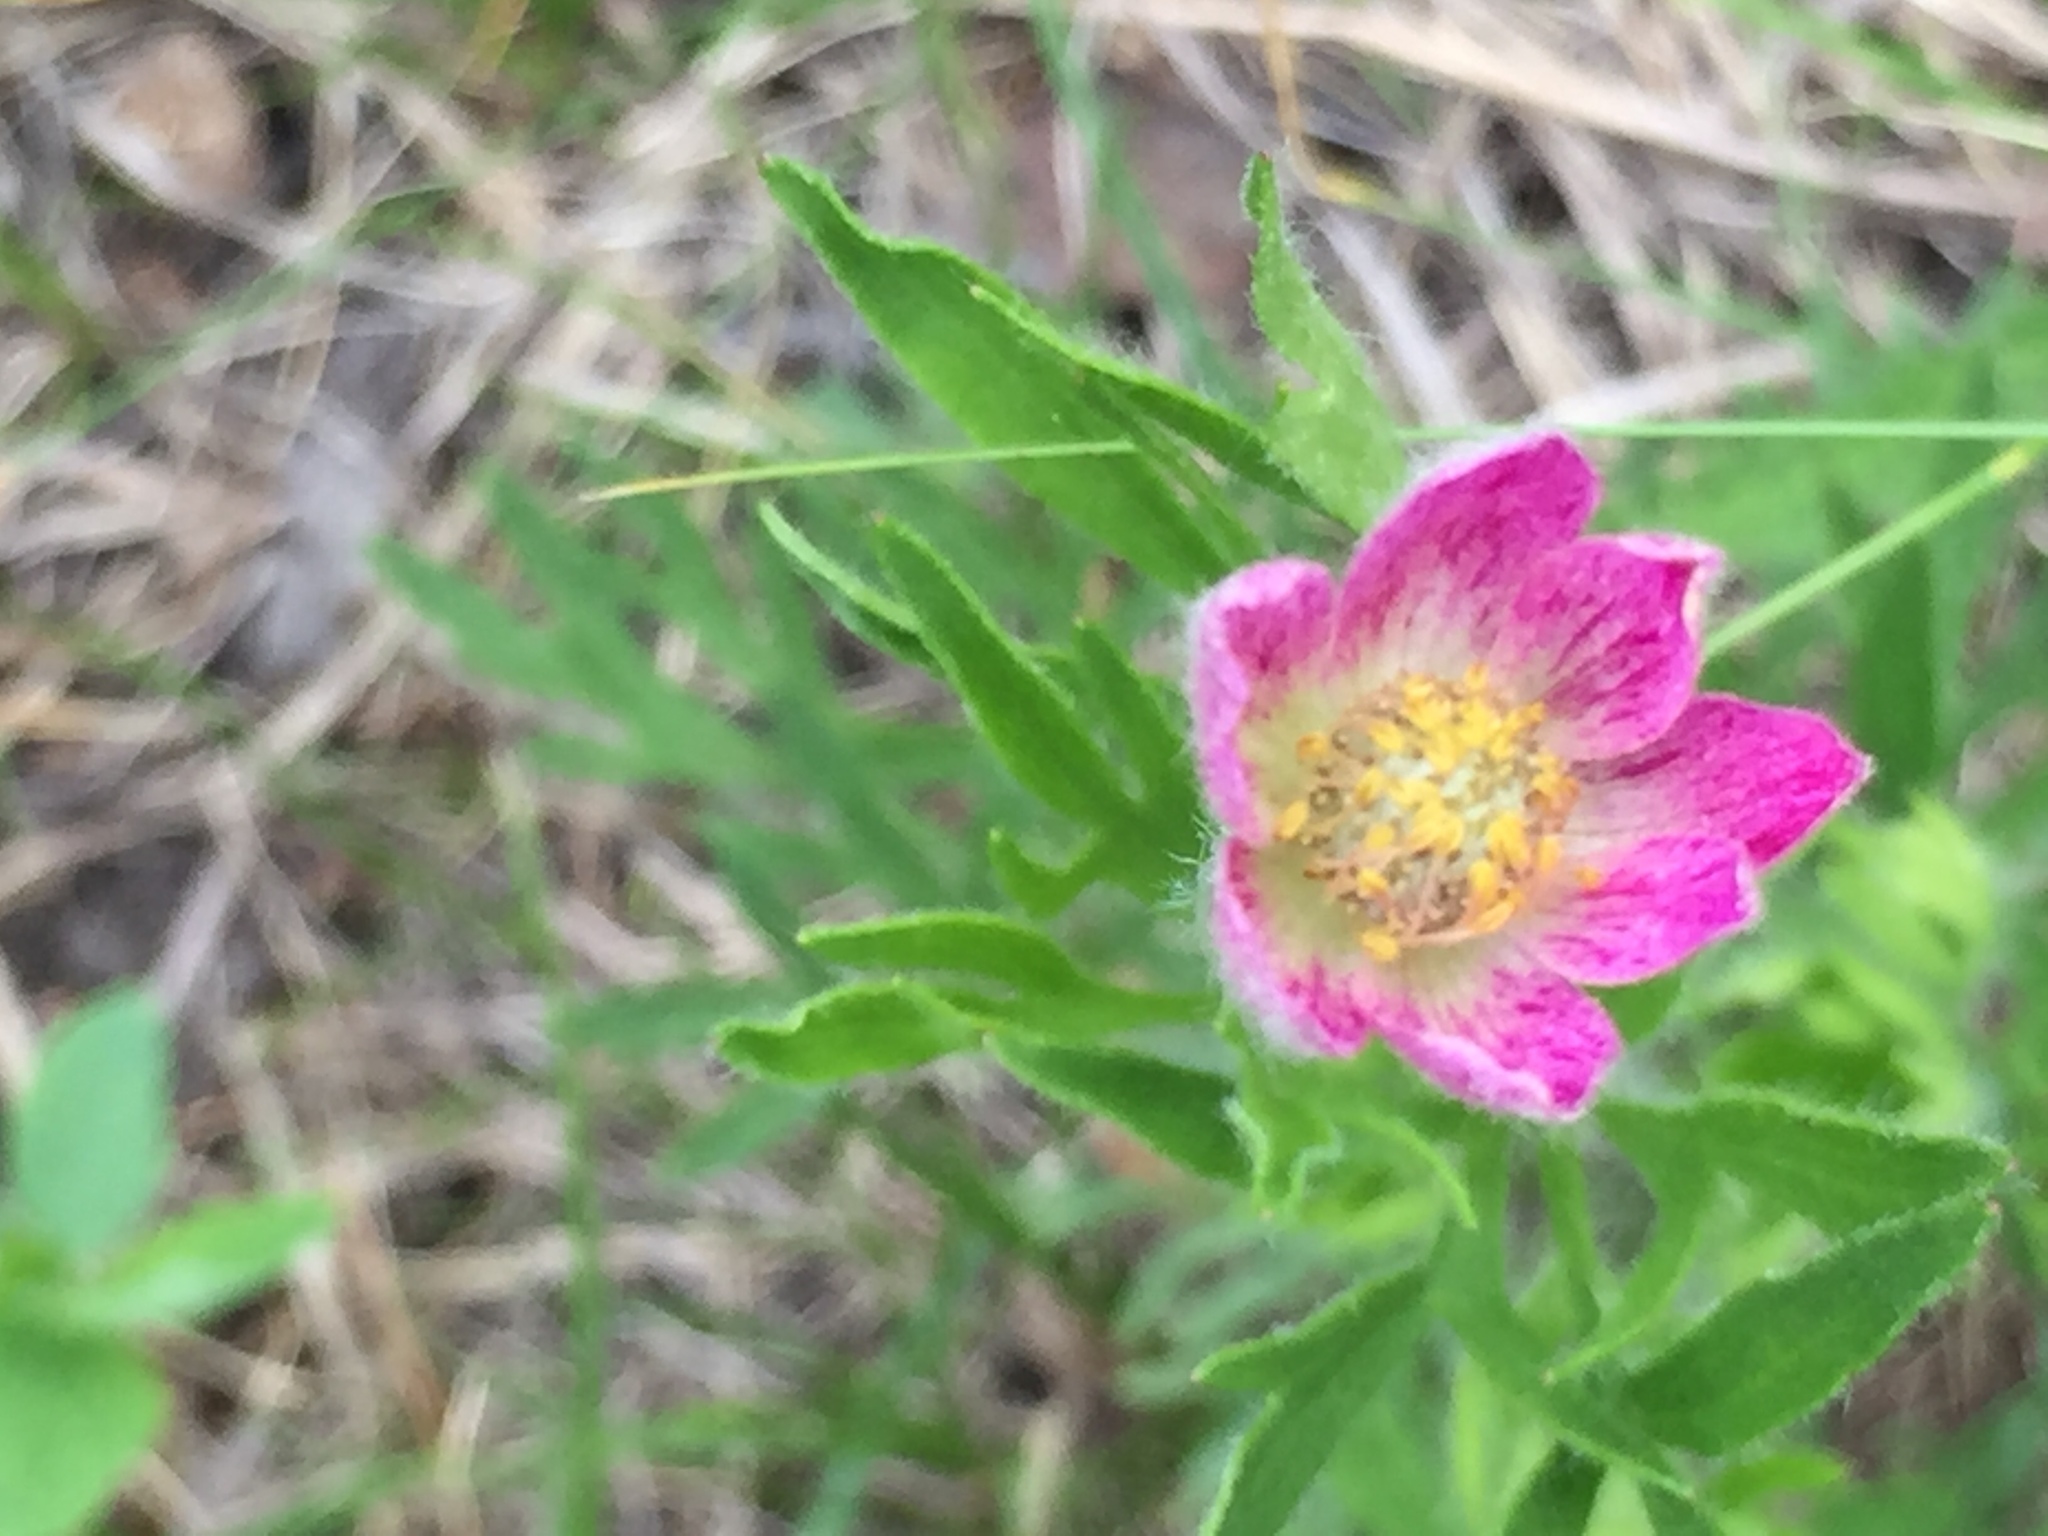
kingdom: Plantae
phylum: Tracheophyta
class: Magnoliopsida
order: Ranunculales
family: Ranunculaceae
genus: Anemone
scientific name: Anemone multifida
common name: Bird's-foot anemone
